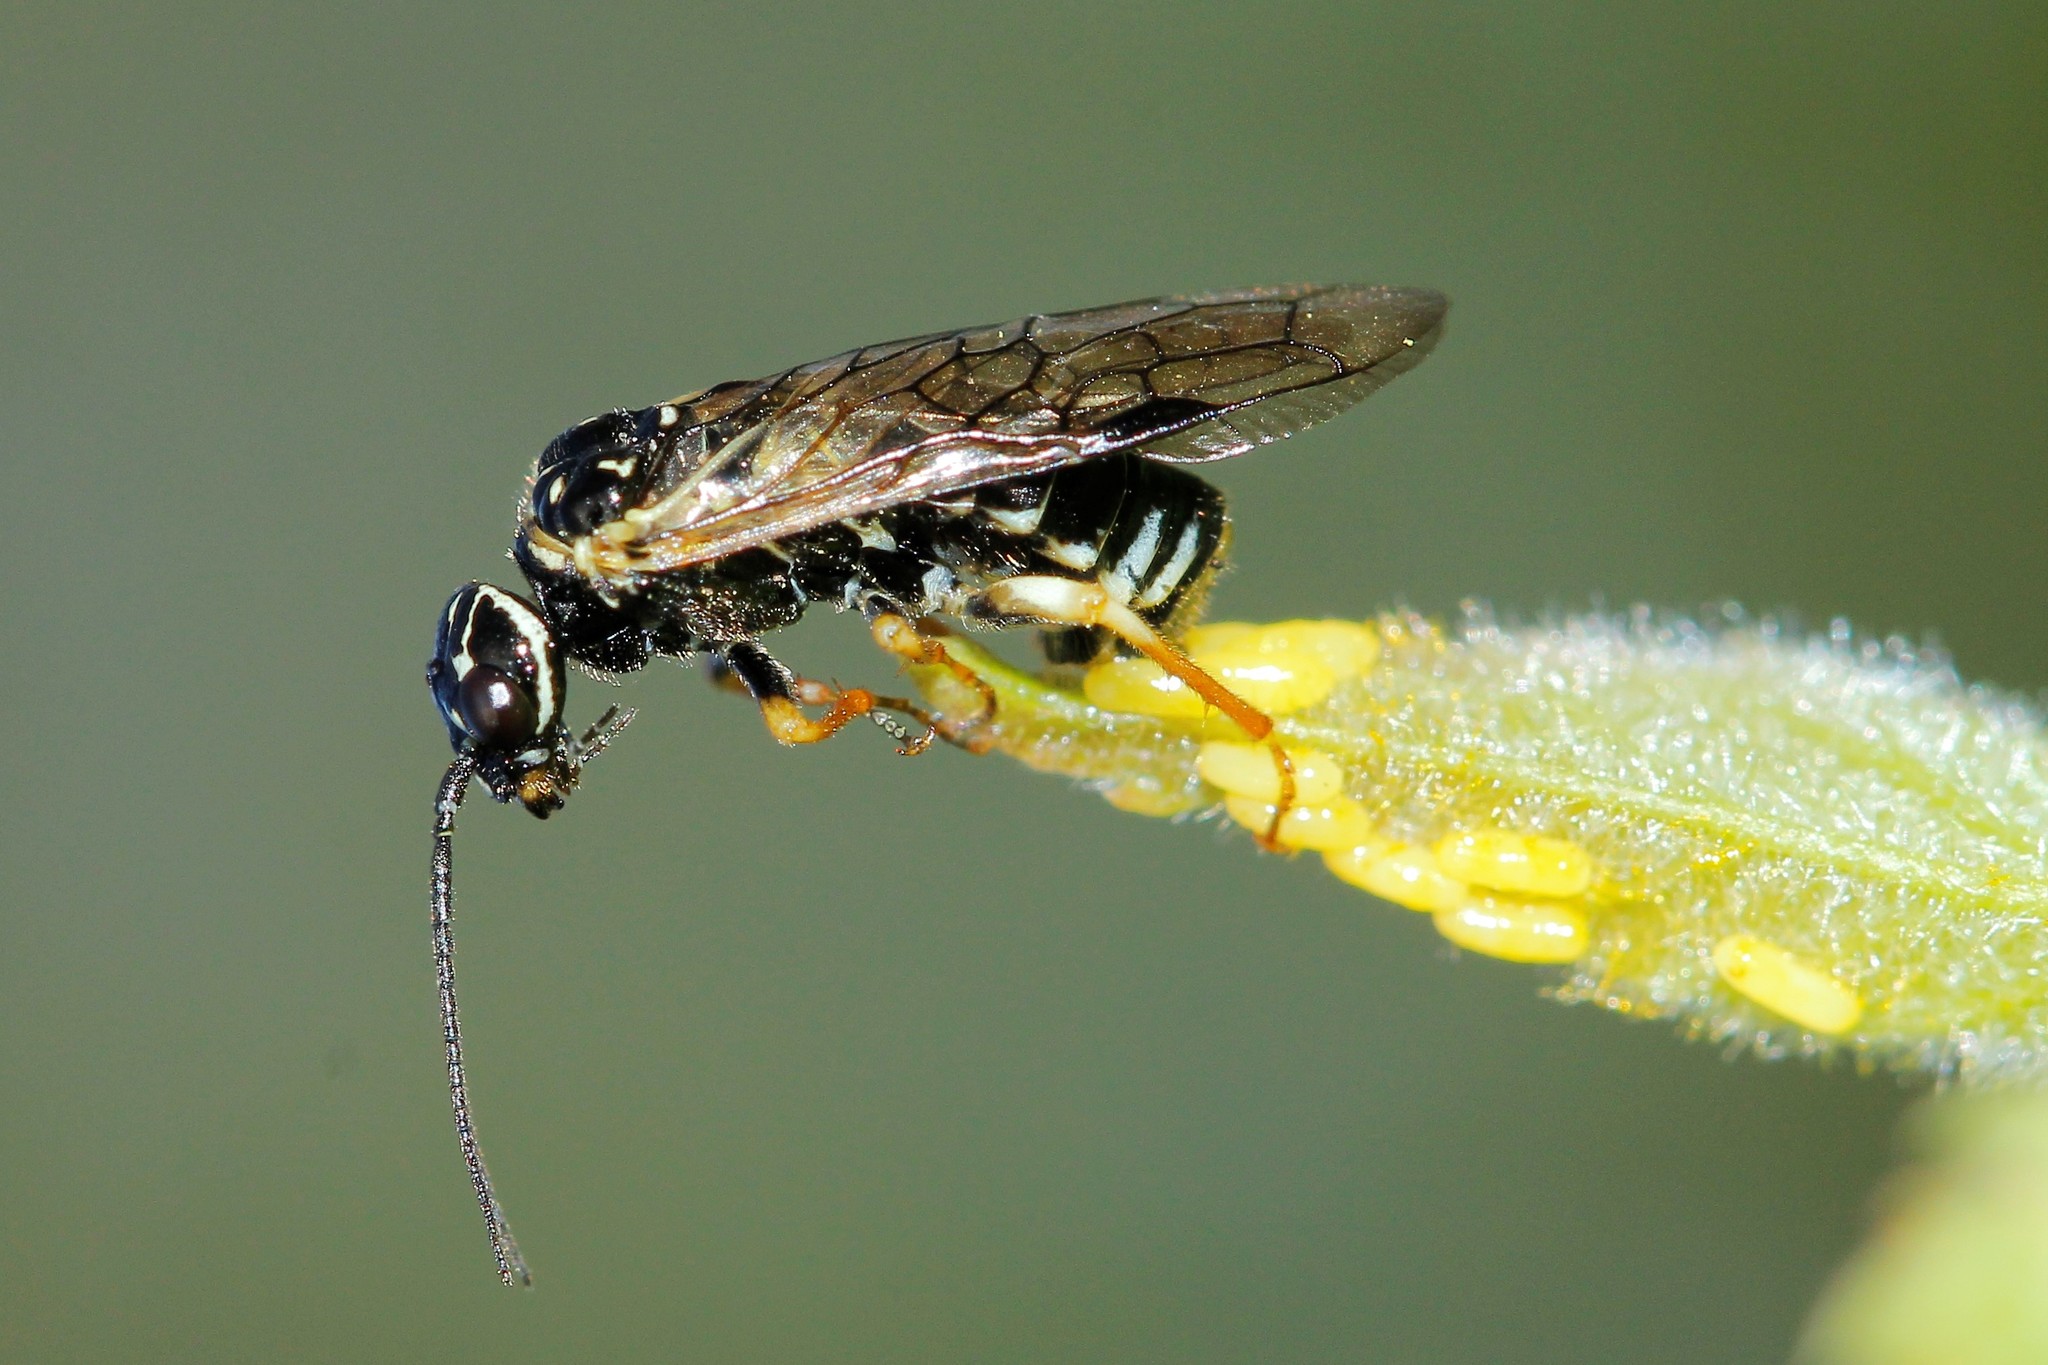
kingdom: Animalia
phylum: Arthropoda
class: Insecta
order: Hymenoptera
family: Pamphiliidae
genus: Neurotoma
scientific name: Neurotoma nemoralis
